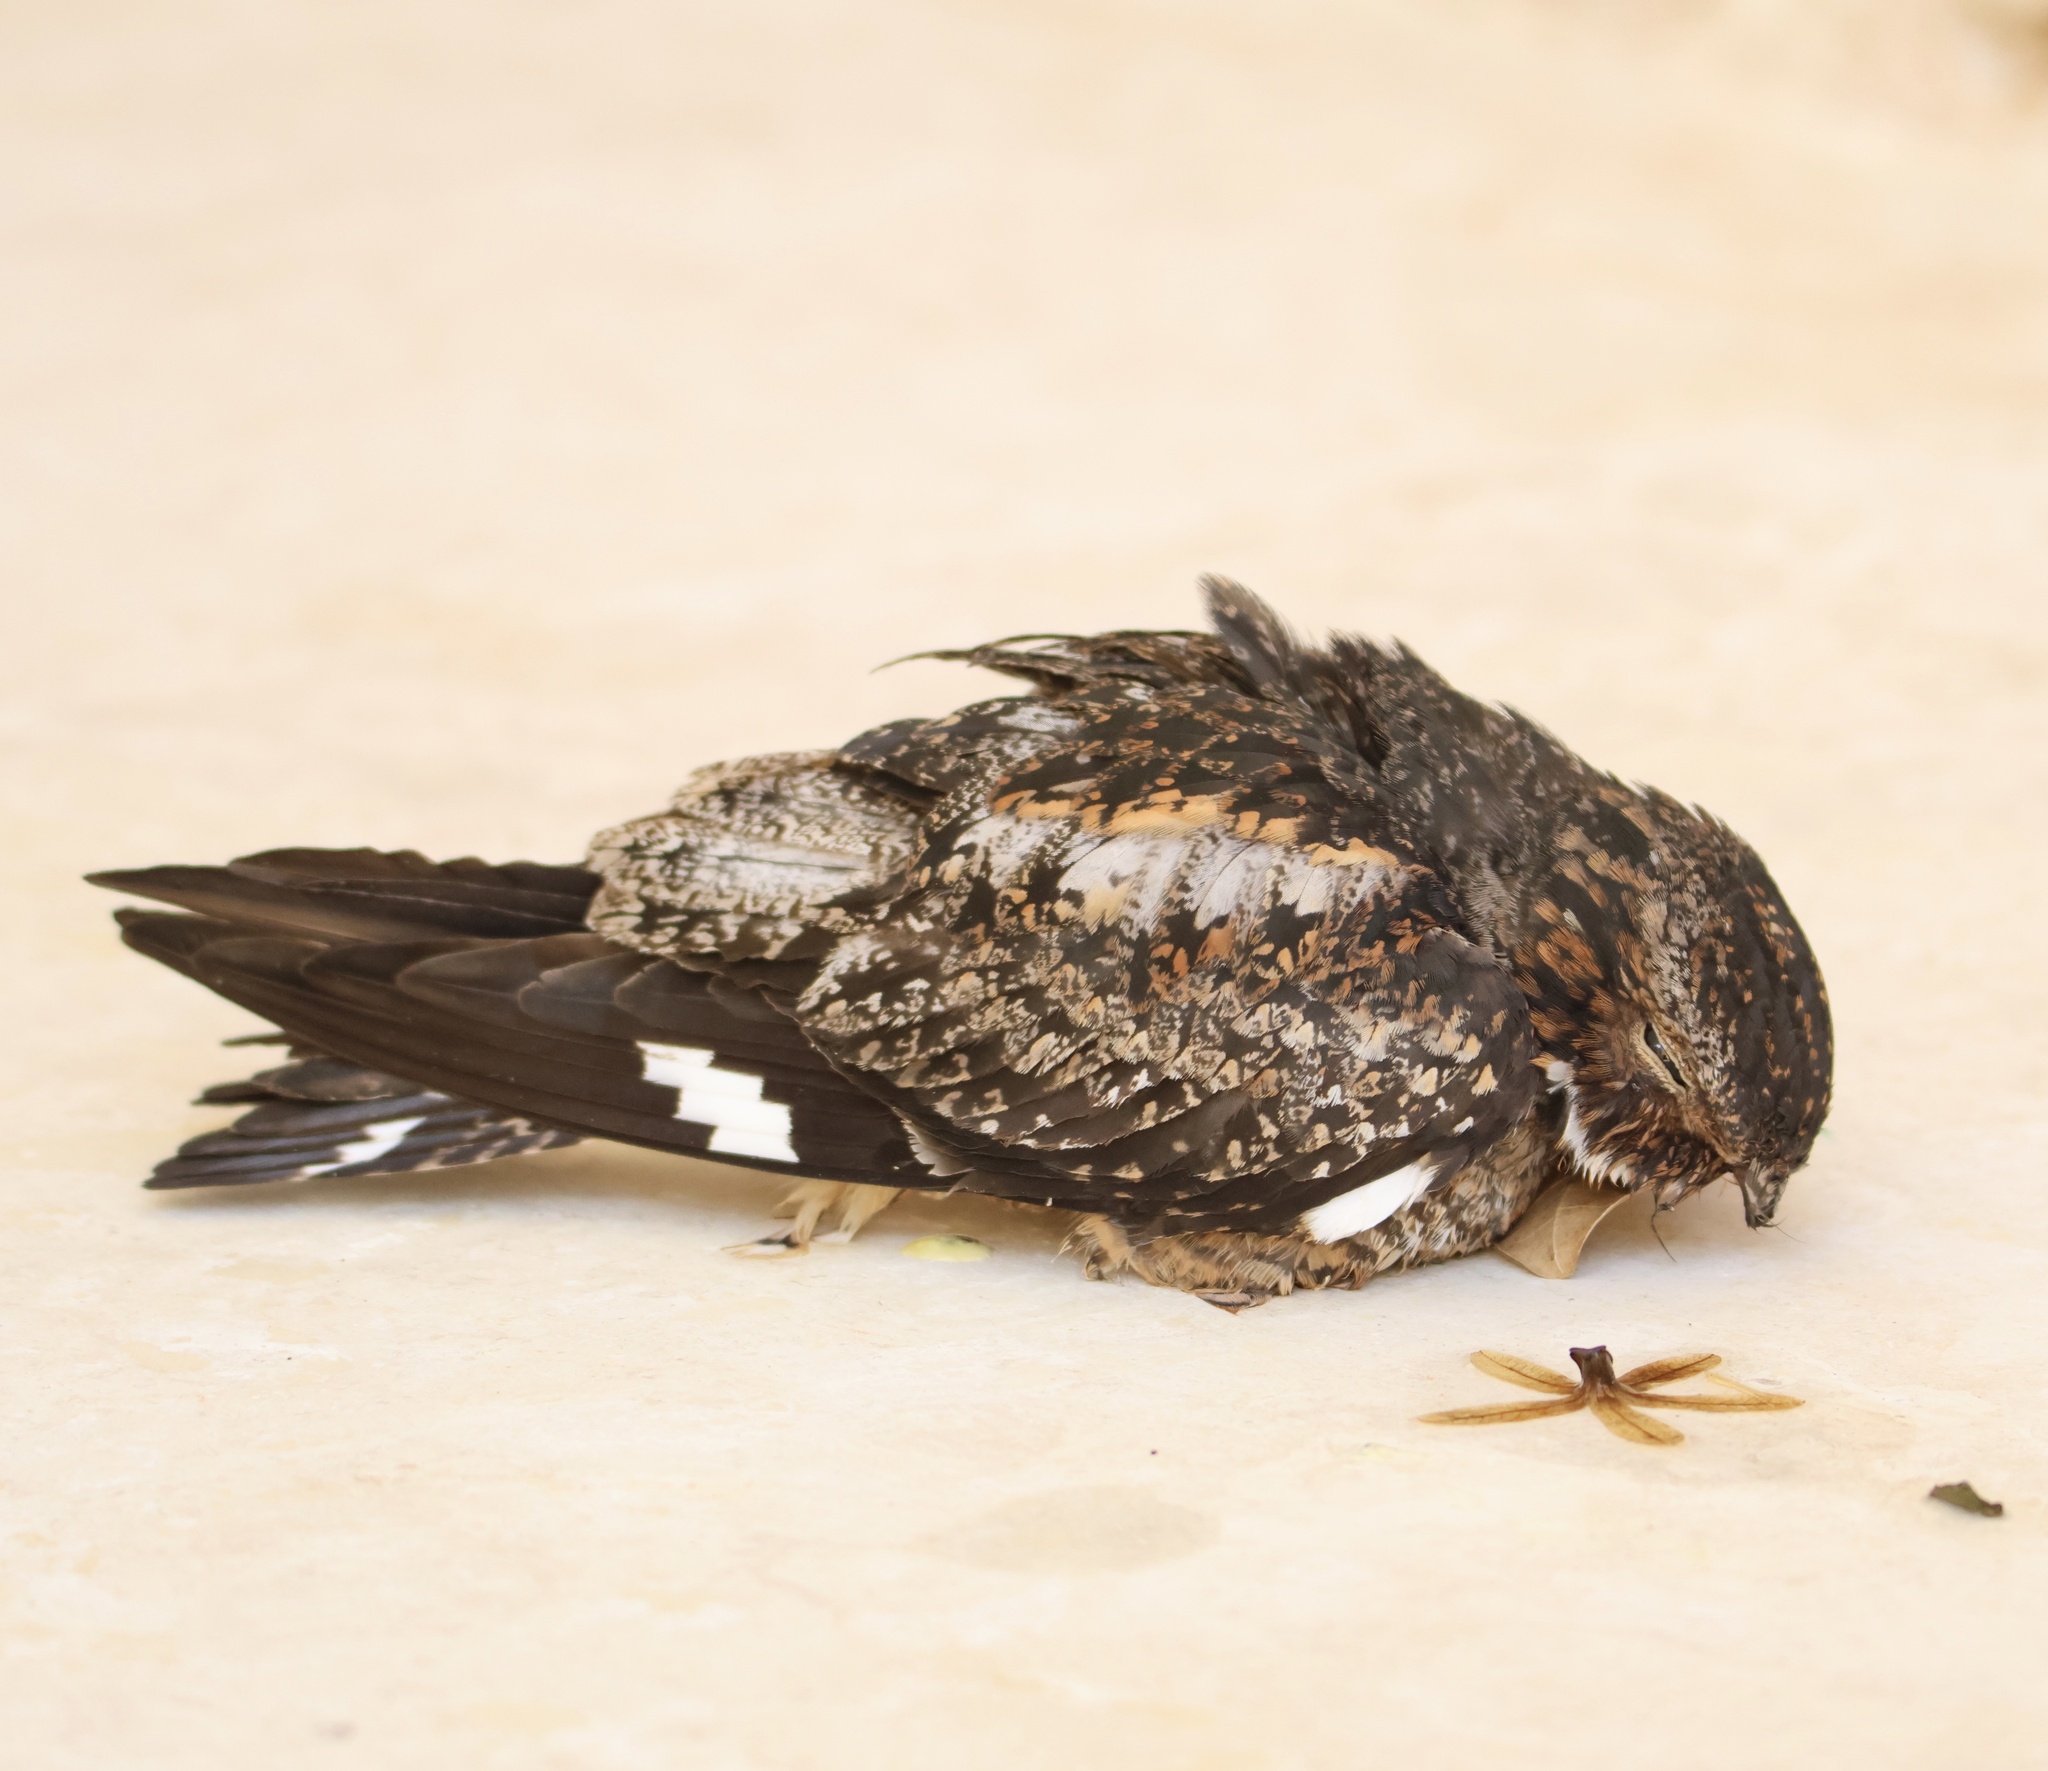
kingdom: Animalia
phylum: Chordata
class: Aves
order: Caprimulgiformes
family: Caprimulgidae
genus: Chordeiles
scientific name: Chordeiles gundlachii
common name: Antillean nighthawk
